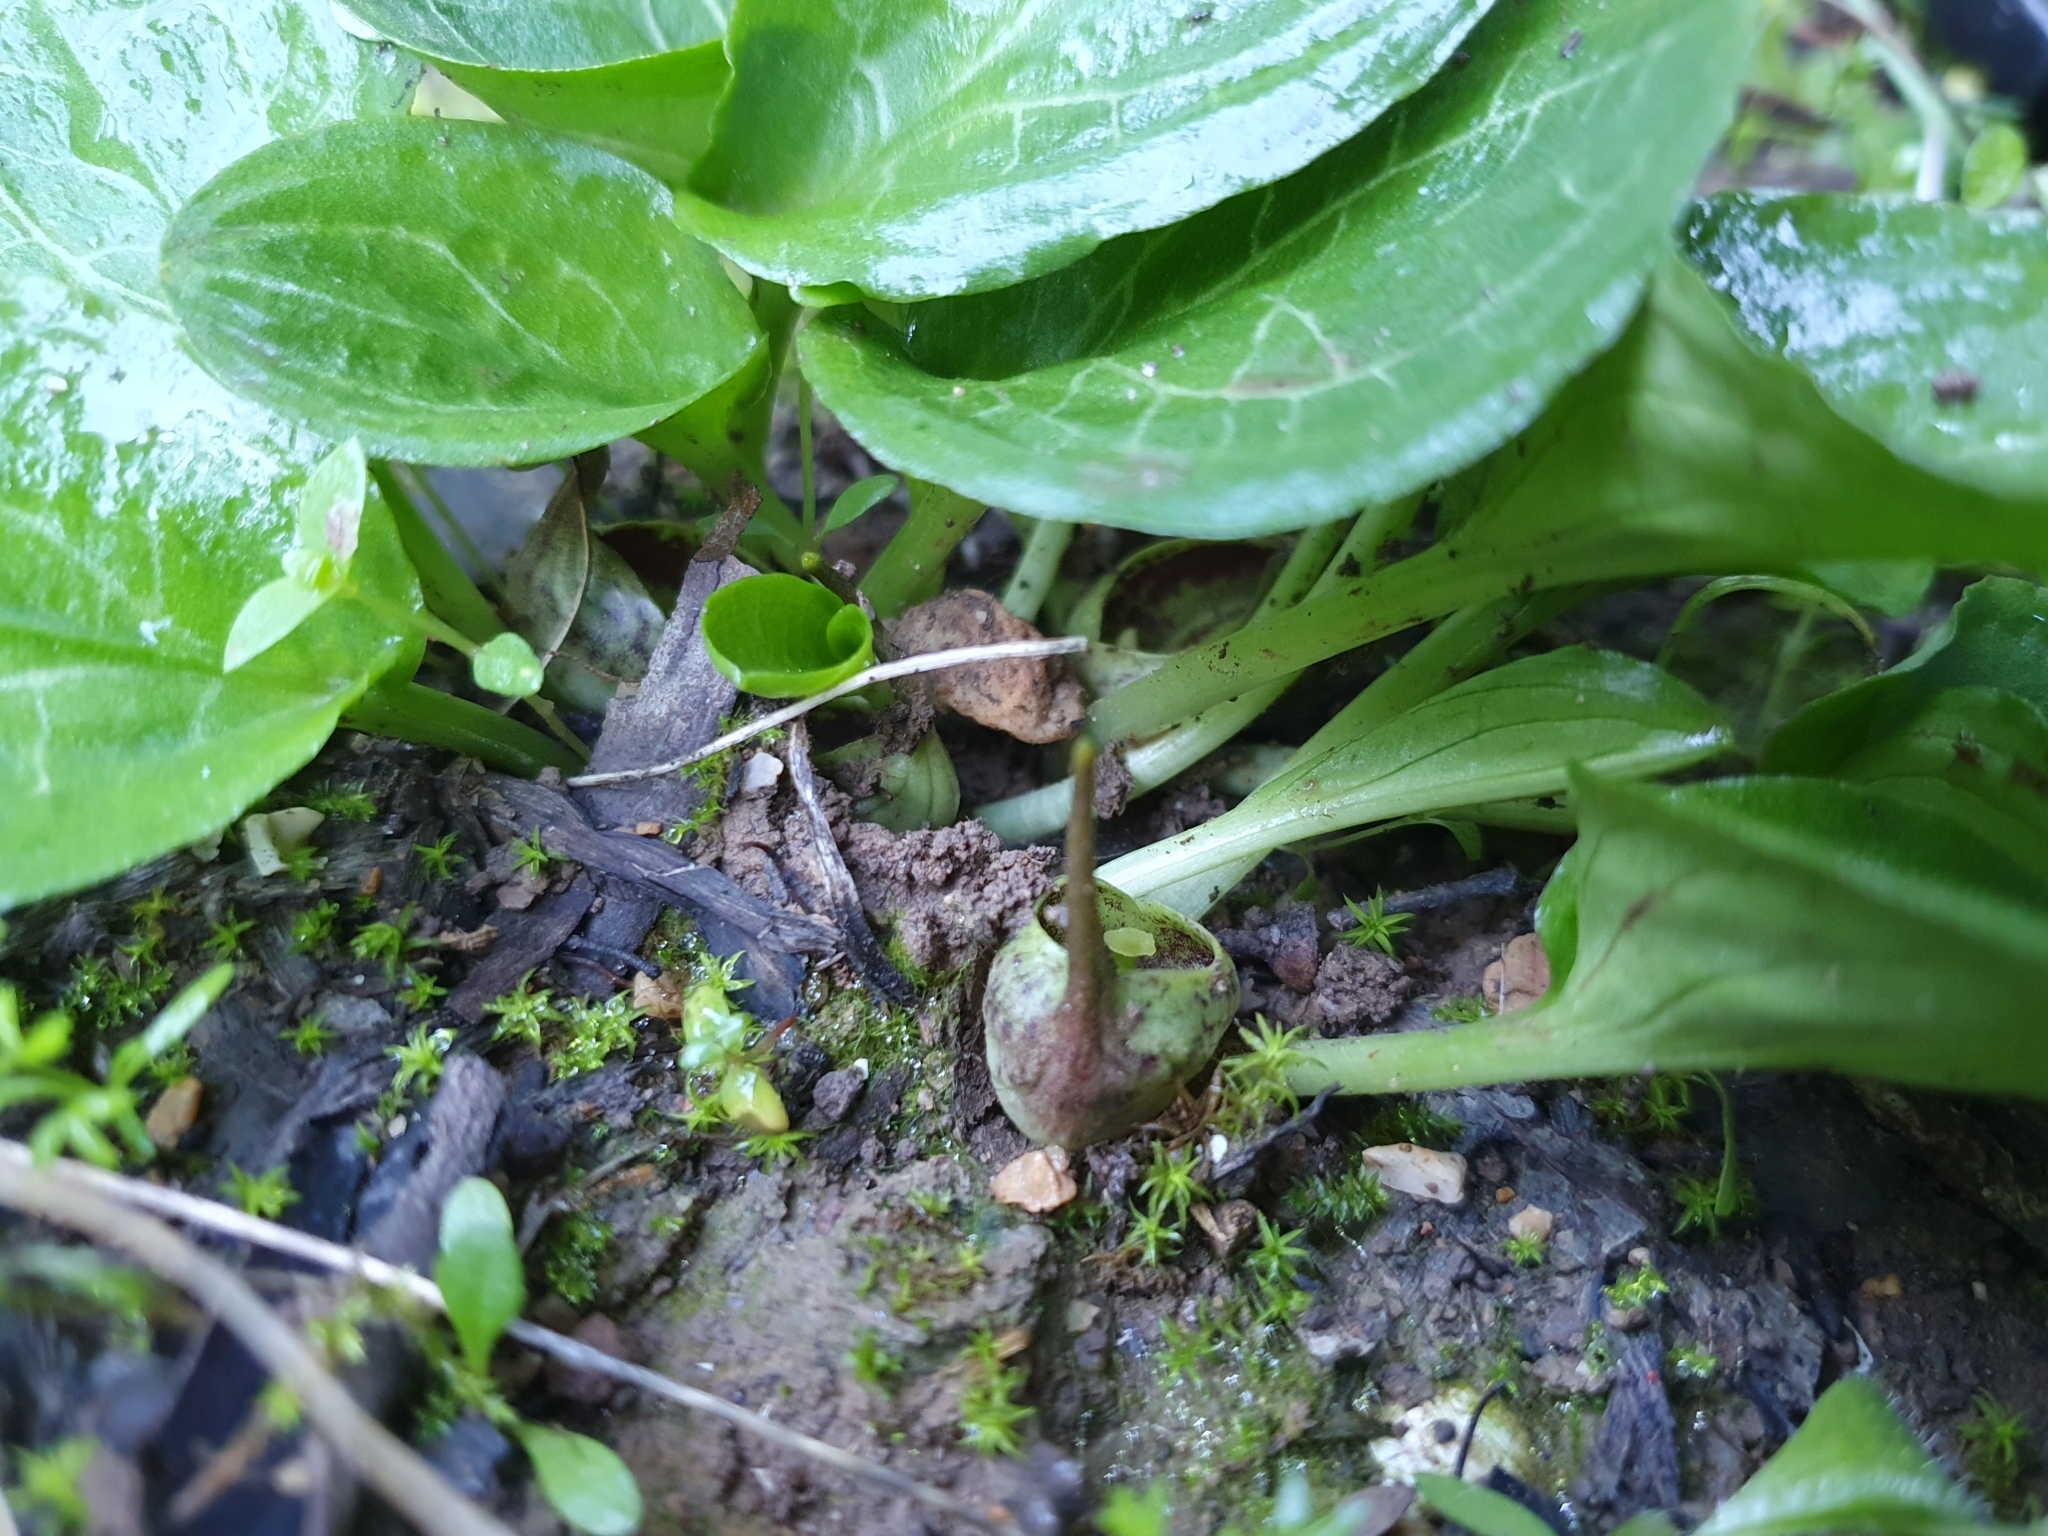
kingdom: Plantae
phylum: Tracheophyta
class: Liliopsida
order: Alismatales
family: Araceae
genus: Ambrosina
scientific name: Ambrosina bassii
